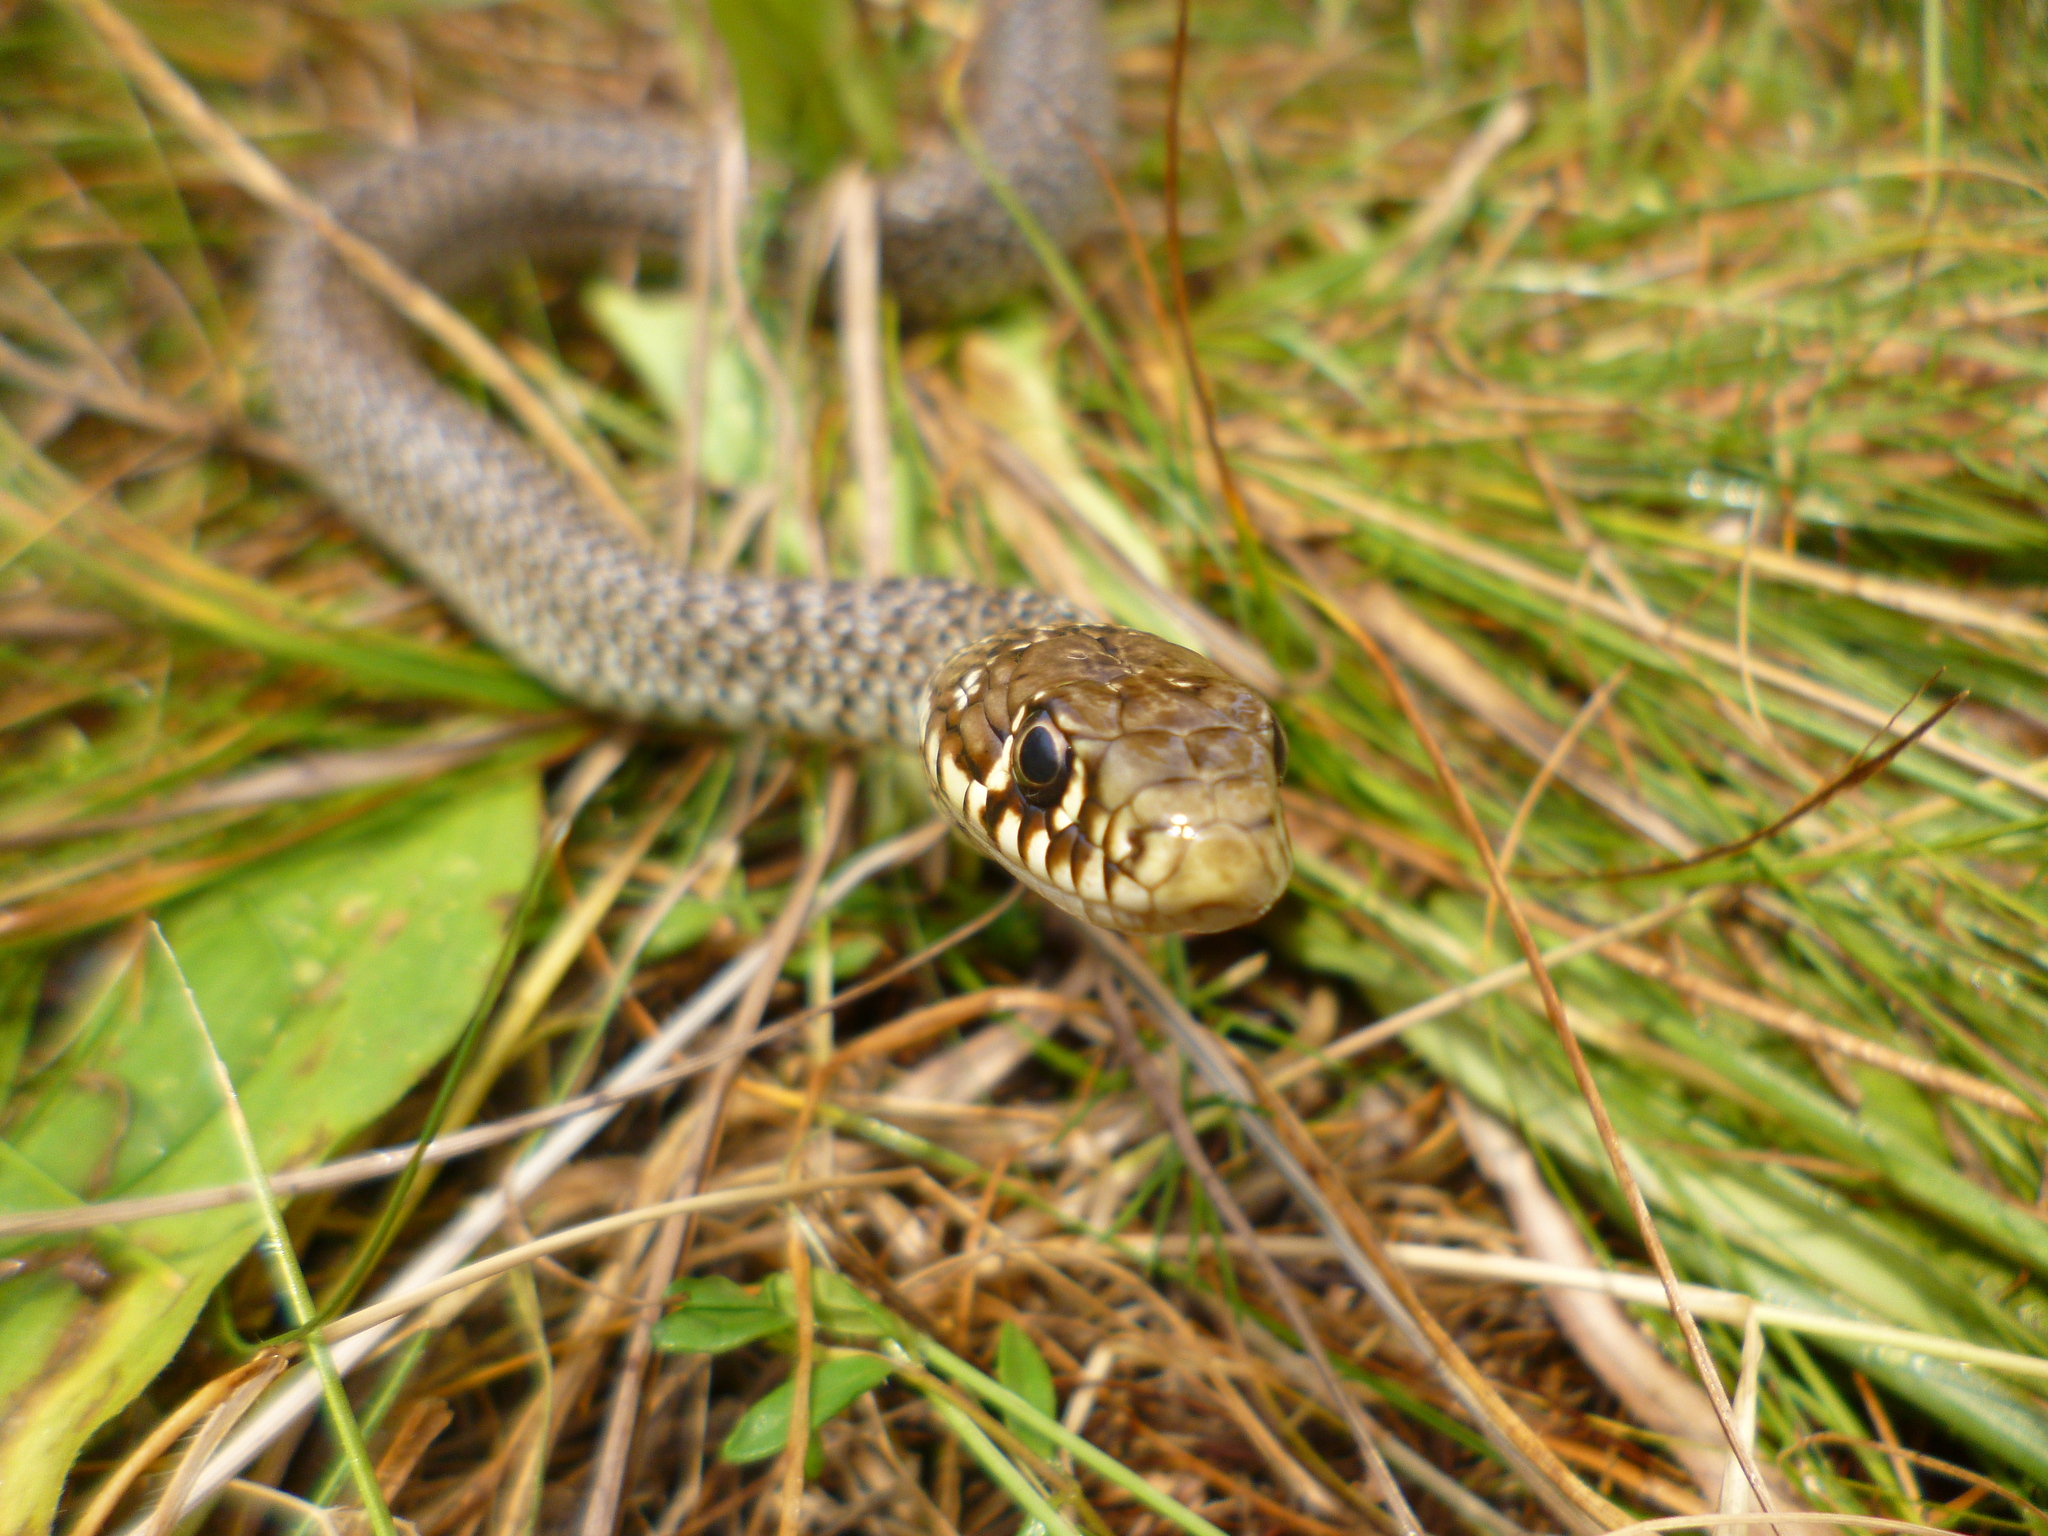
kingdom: Animalia
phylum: Chordata
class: Squamata
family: Colubridae
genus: Hierophis
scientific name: Hierophis gemonensis
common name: Balkan whip snake
